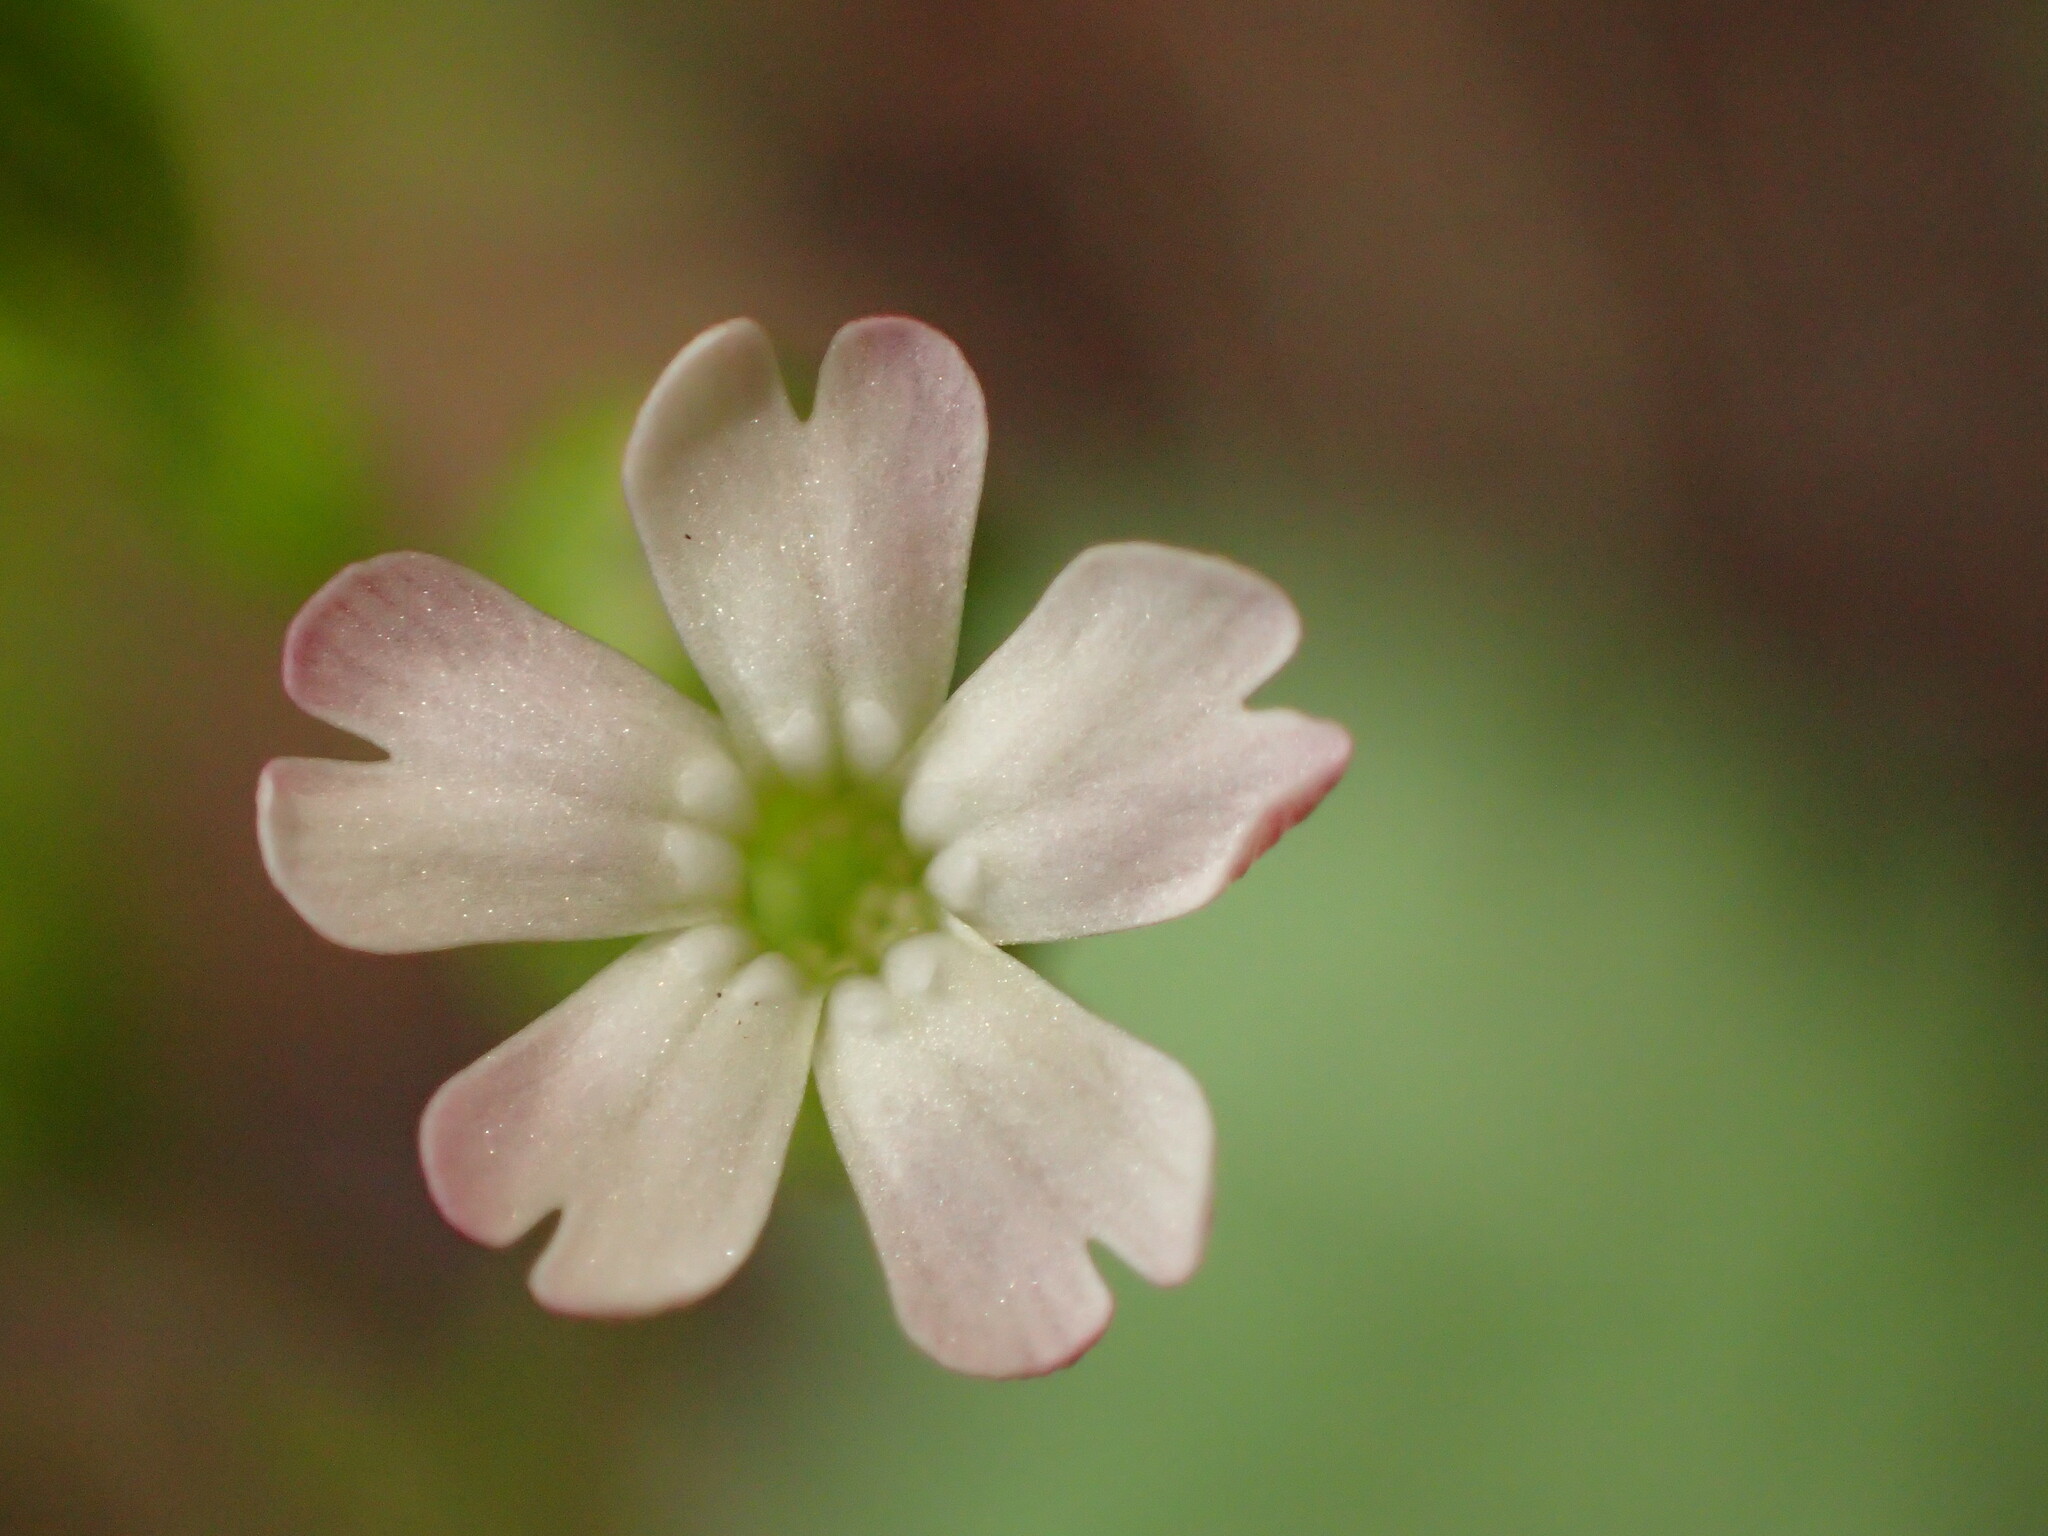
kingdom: Plantae
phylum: Tracheophyta
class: Magnoliopsida
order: Caryophyllales
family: Caryophyllaceae
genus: Silene
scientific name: Silene antirrhina
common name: Sleepy catchfly
